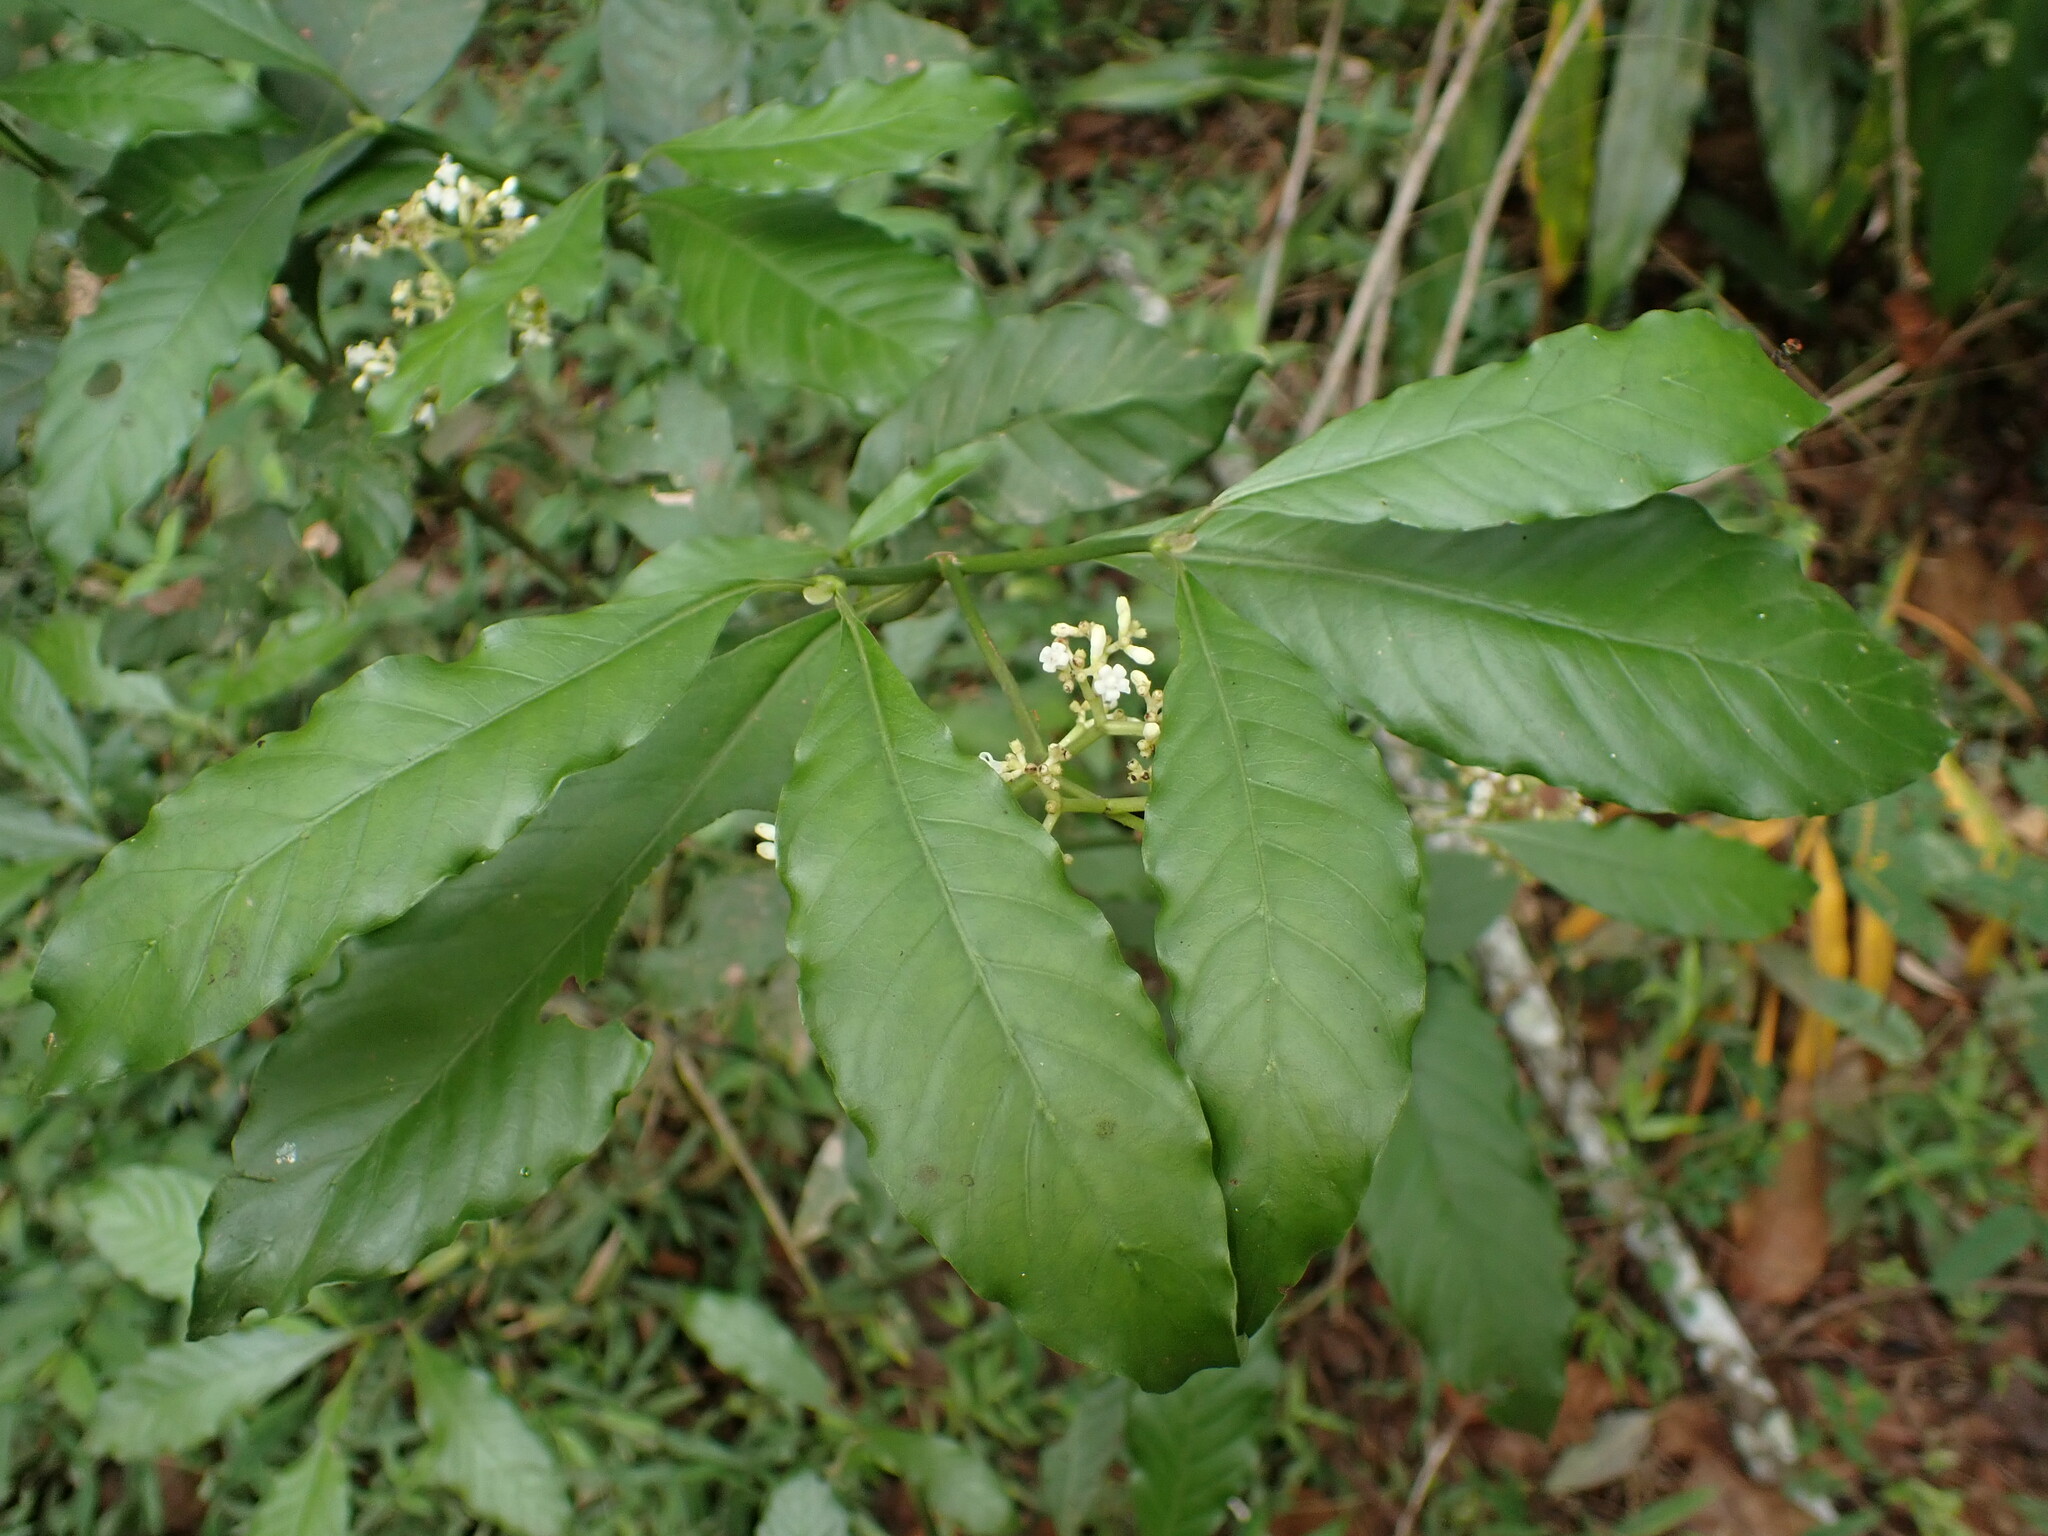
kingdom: Plantae
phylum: Tracheophyta
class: Magnoliopsida
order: Gentianales
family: Rubiaceae
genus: Psychotria
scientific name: Psychotria carthagenensis
